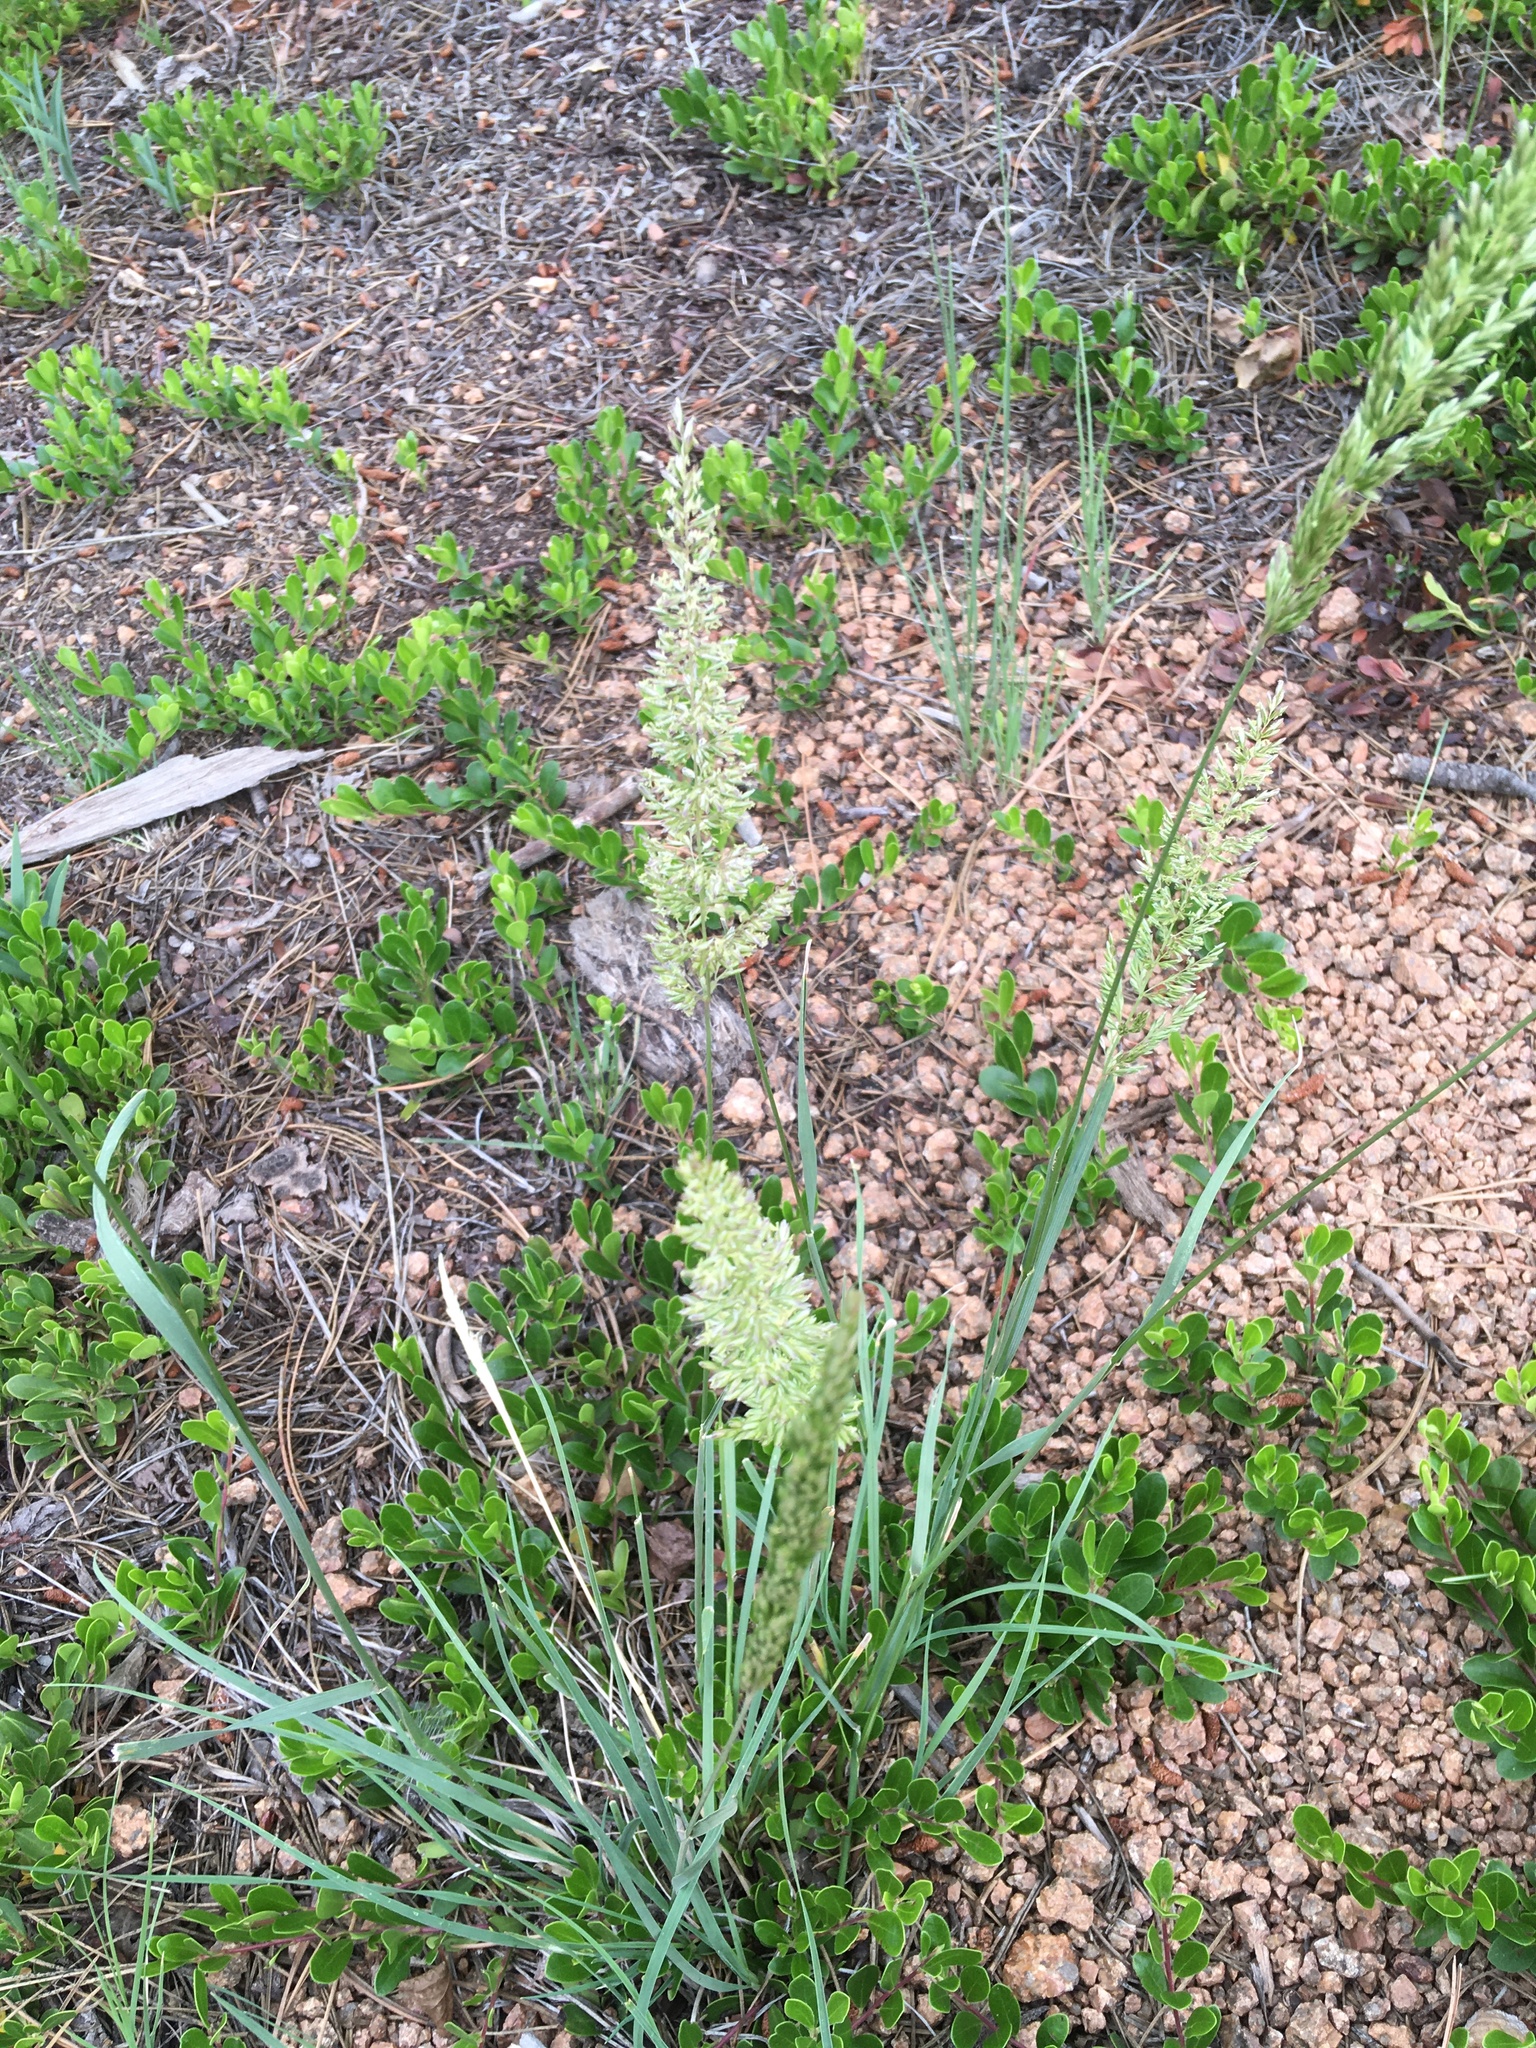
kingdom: Plantae
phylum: Tracheophyta
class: Liliopsida
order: Poales
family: Poaceae
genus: Koeleria
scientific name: Koeleria macrantha
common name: Crested hair-grass
